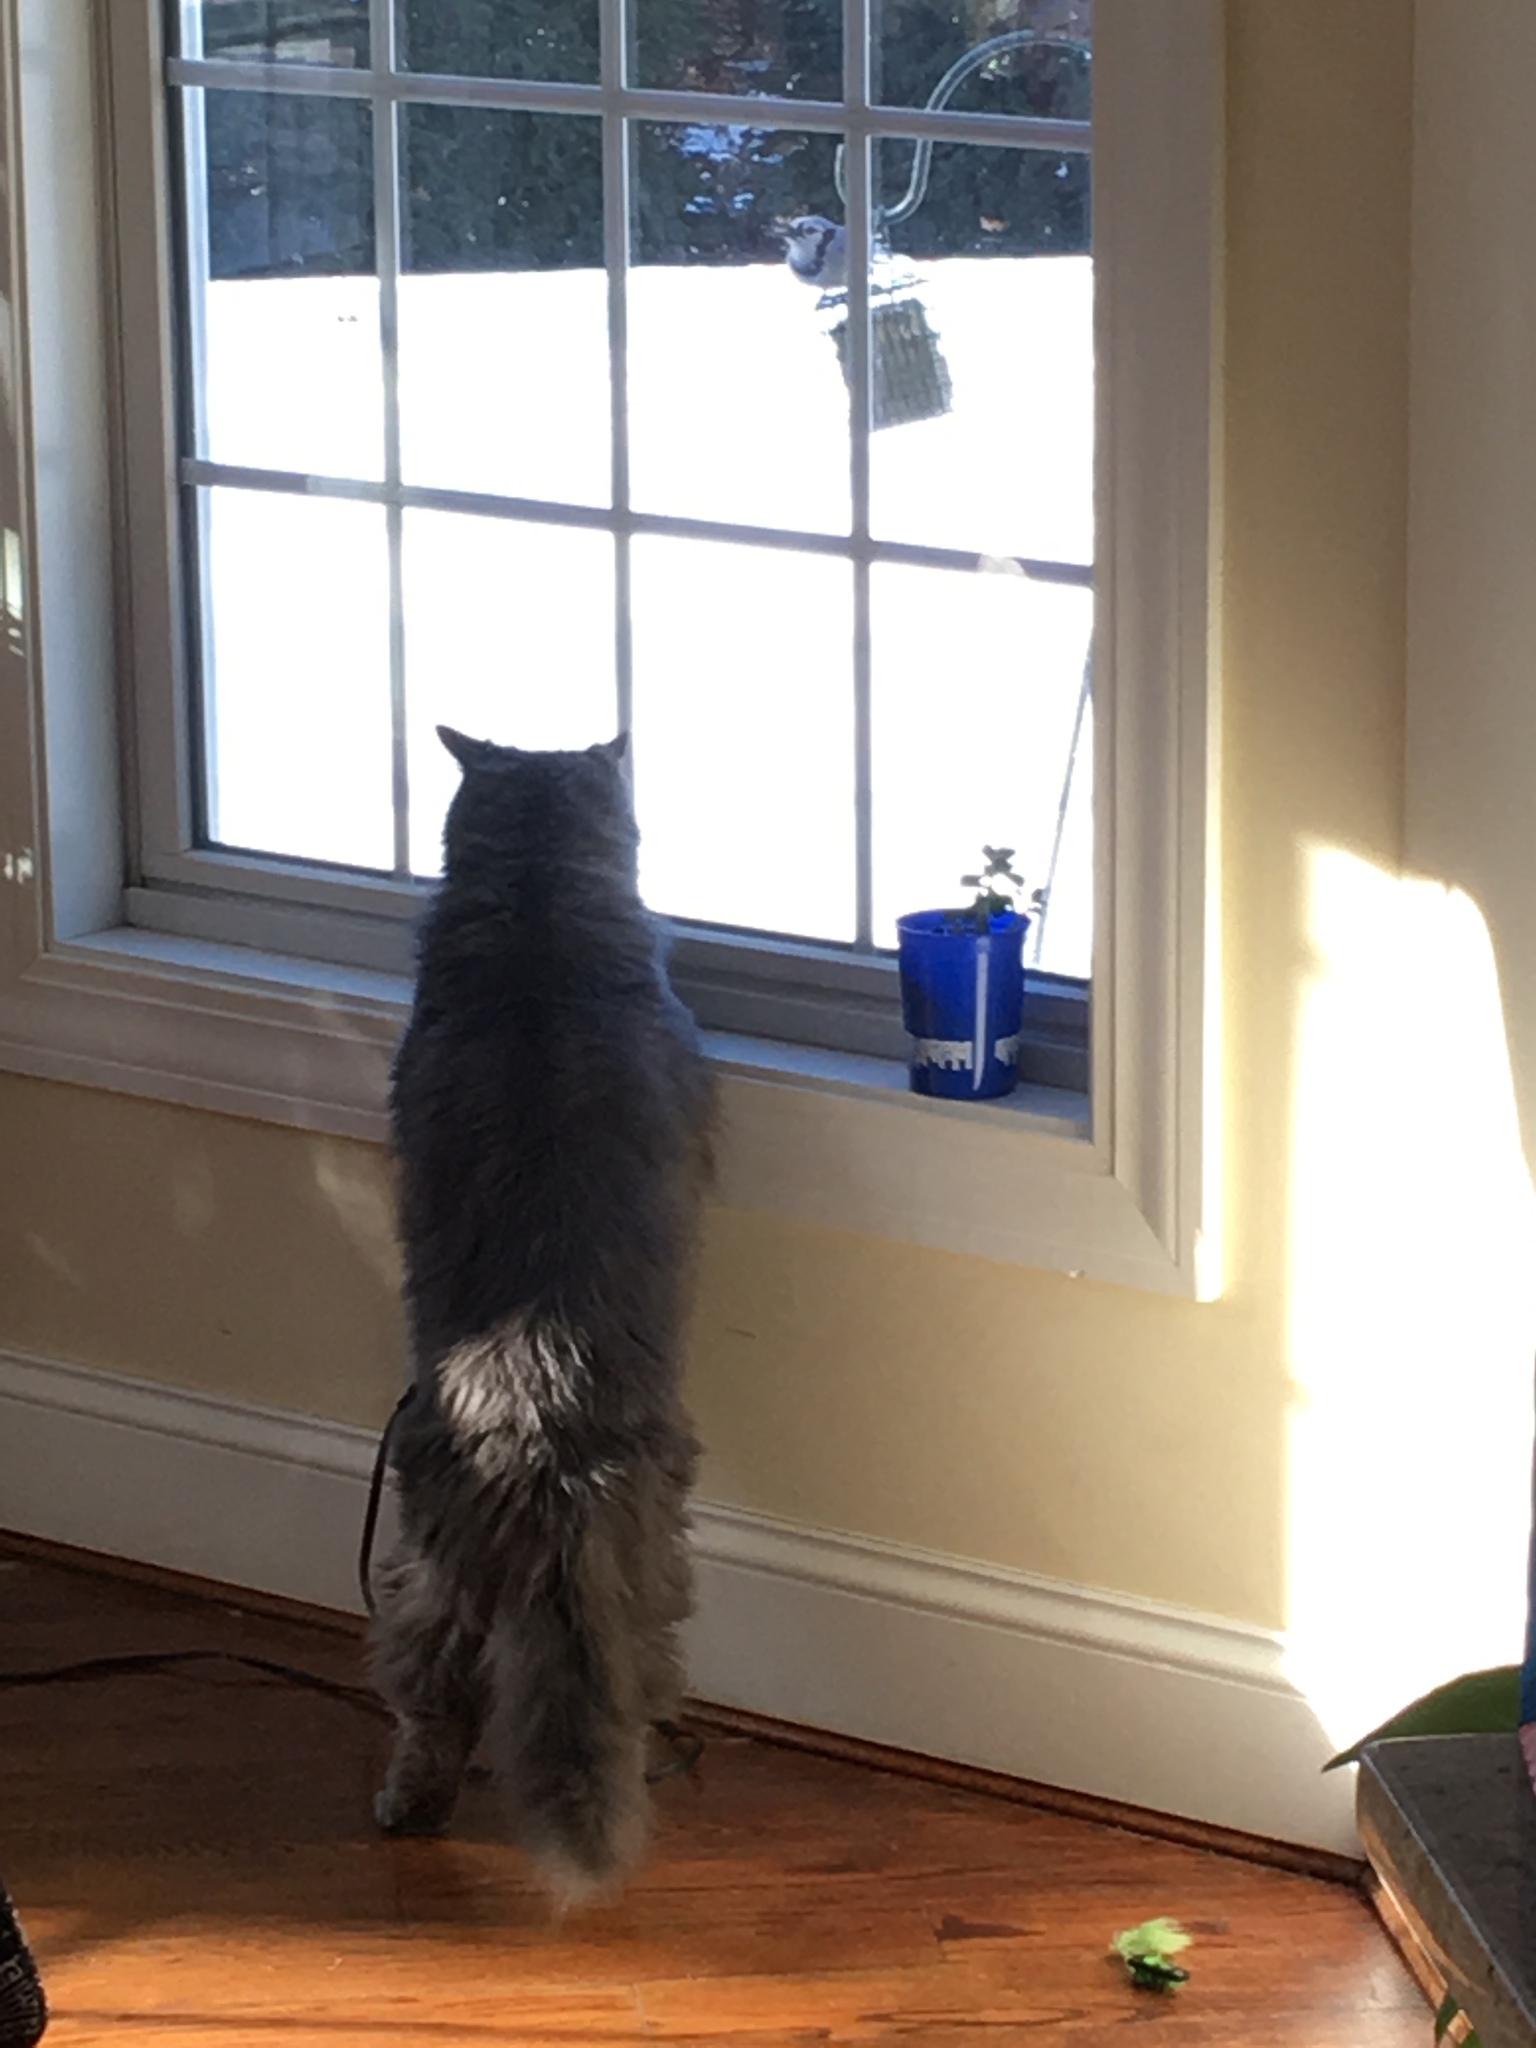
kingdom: Animalia
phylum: Chordata
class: Aves
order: Passeriformes
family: Corvidae
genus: Cyanocitta
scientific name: Cyanocitta cristata
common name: Blue jay
